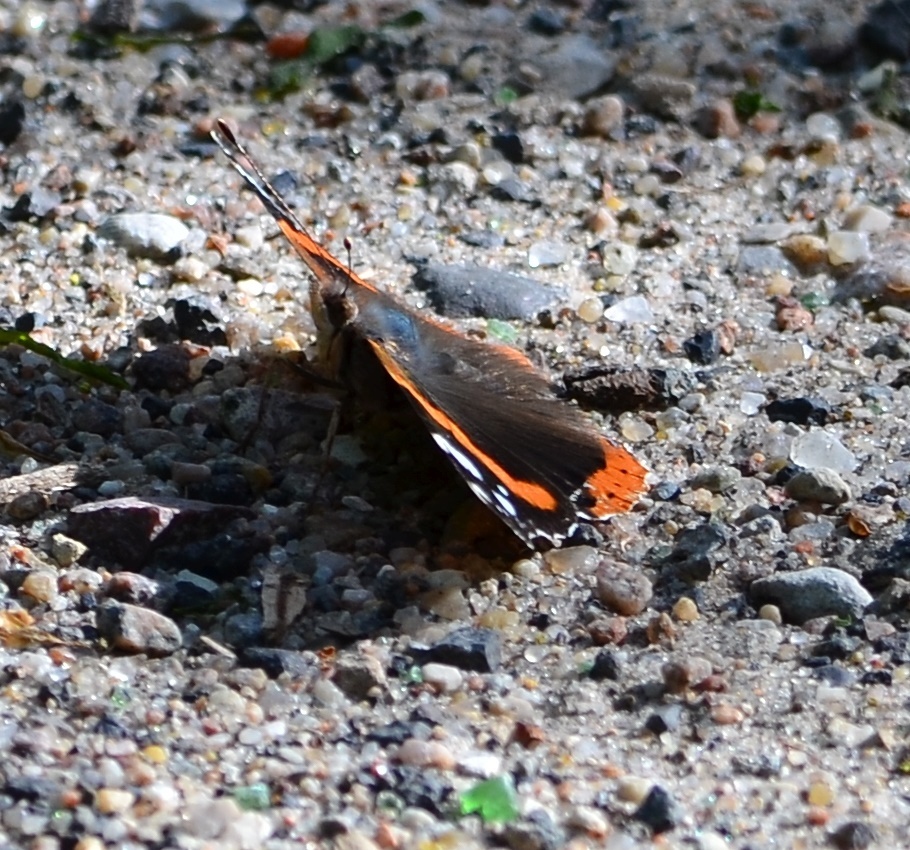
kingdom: Animalia
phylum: Arthropoda
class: Insecta
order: Lepidoptera
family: Nymphalidae
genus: Vanessa
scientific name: Vanessa atalanta
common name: Red admiral
